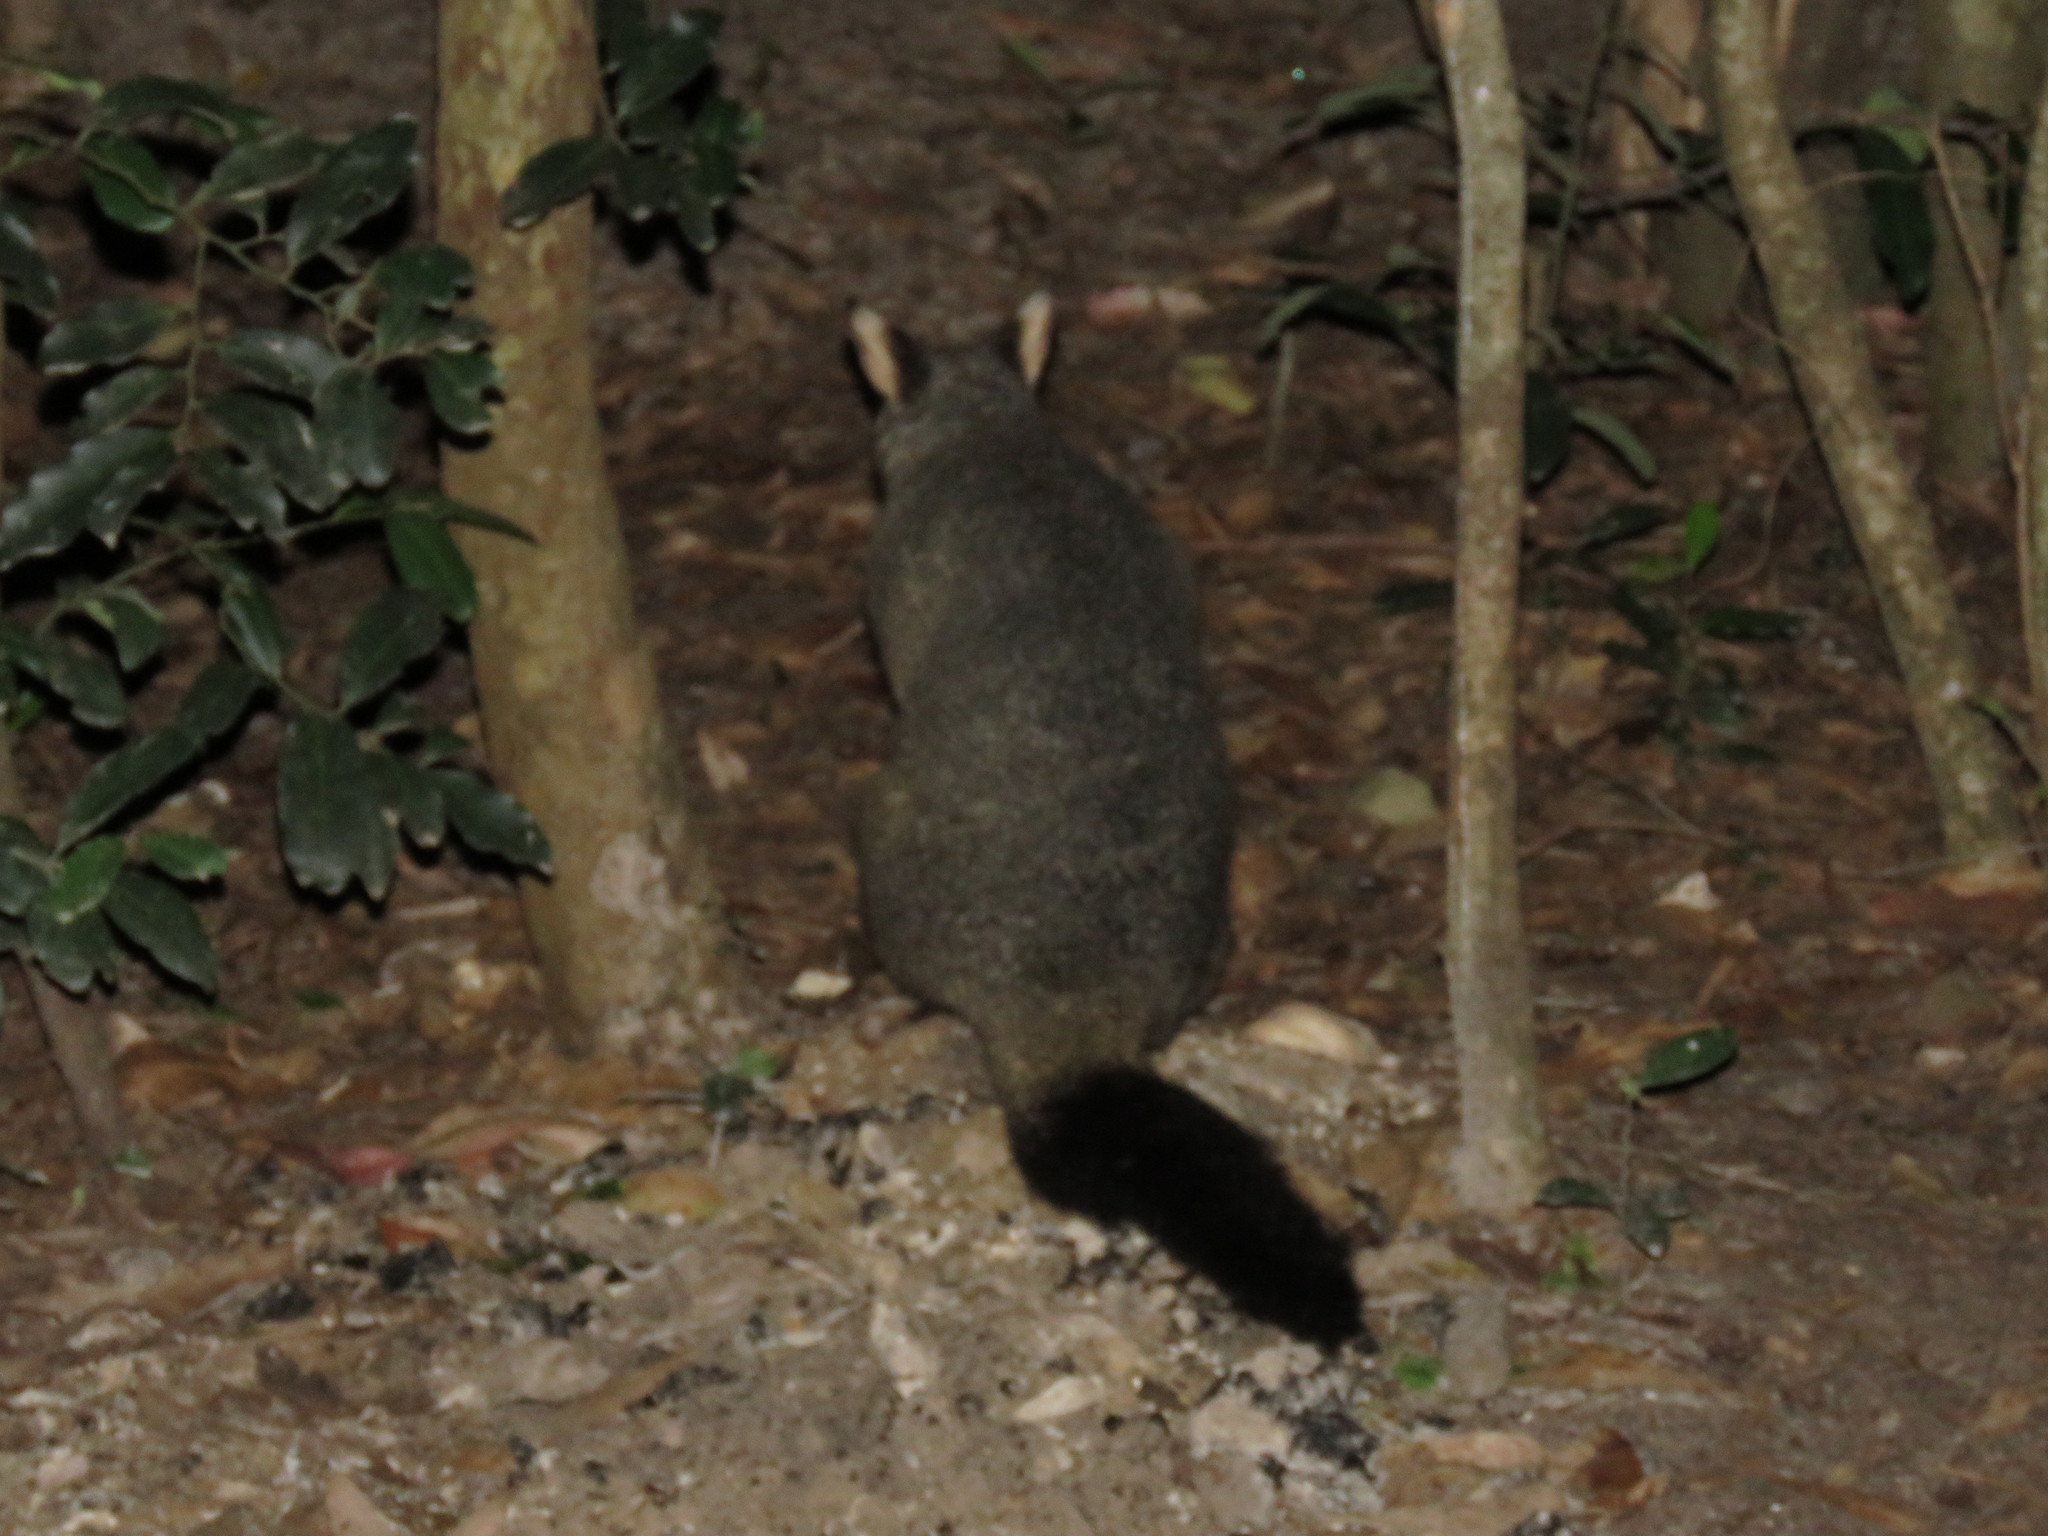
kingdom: Animalia
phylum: Chordata
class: Mammalia
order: Diprotodontia
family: Phalangeridae
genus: Trichosurus
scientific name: Trichosurus vulpecula
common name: Common brushtail
